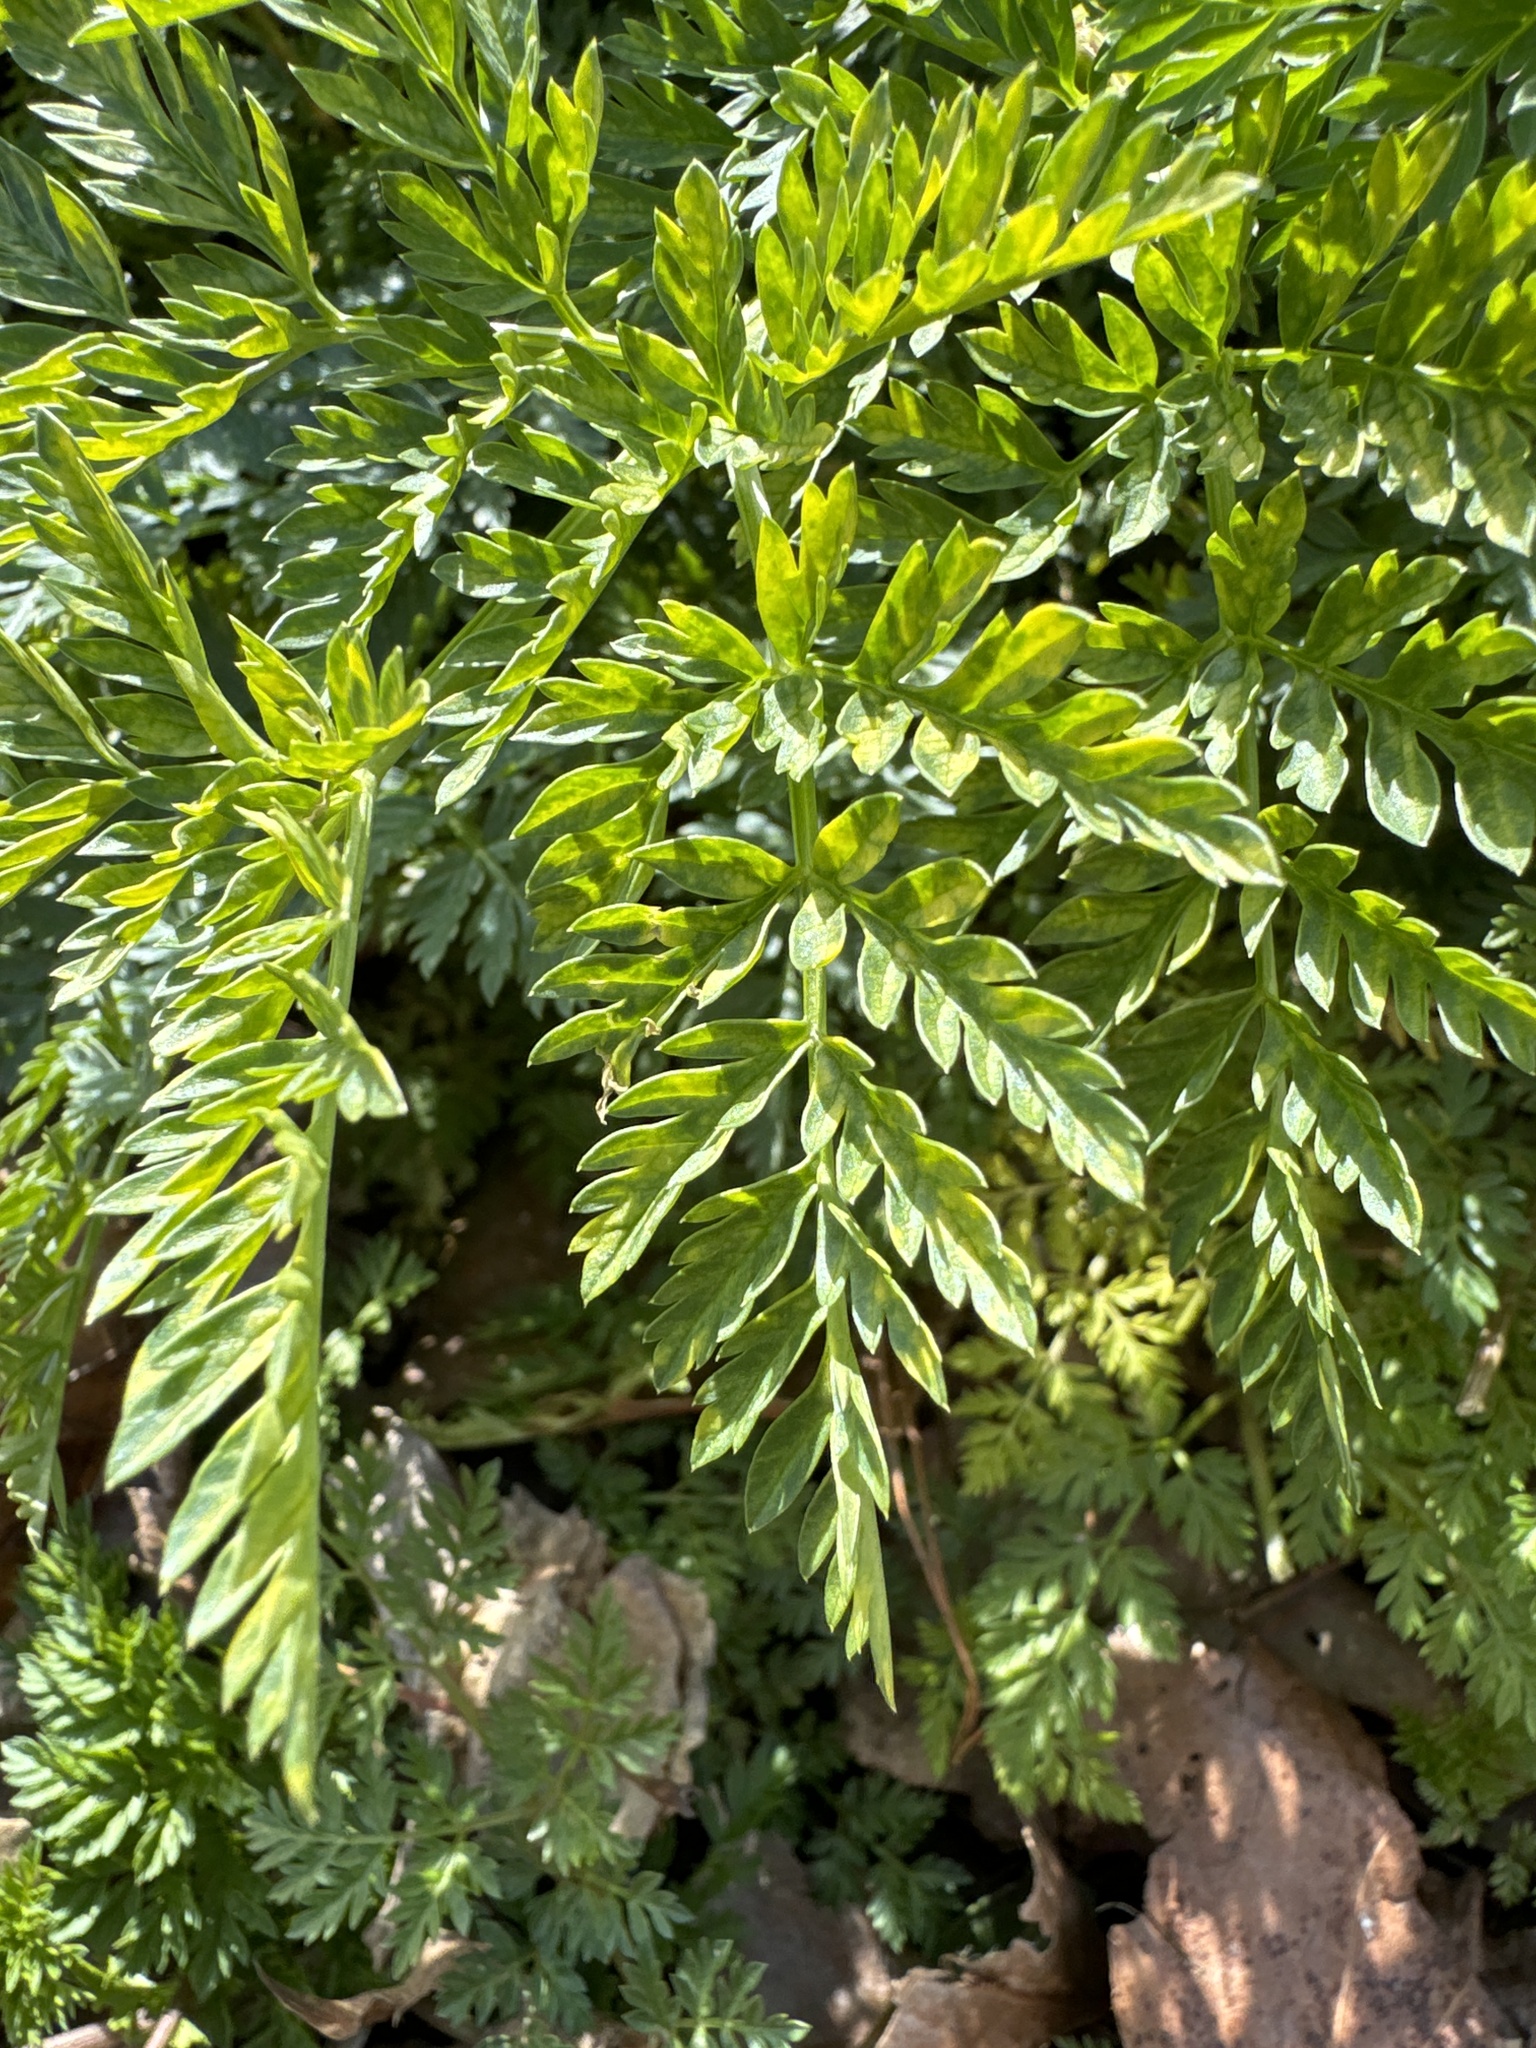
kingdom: Plantae
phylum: Tracheophyta
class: Magnoliopsida
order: Apiales
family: Apiaceae
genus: Conium
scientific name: Conium maculatum
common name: Hemlock
